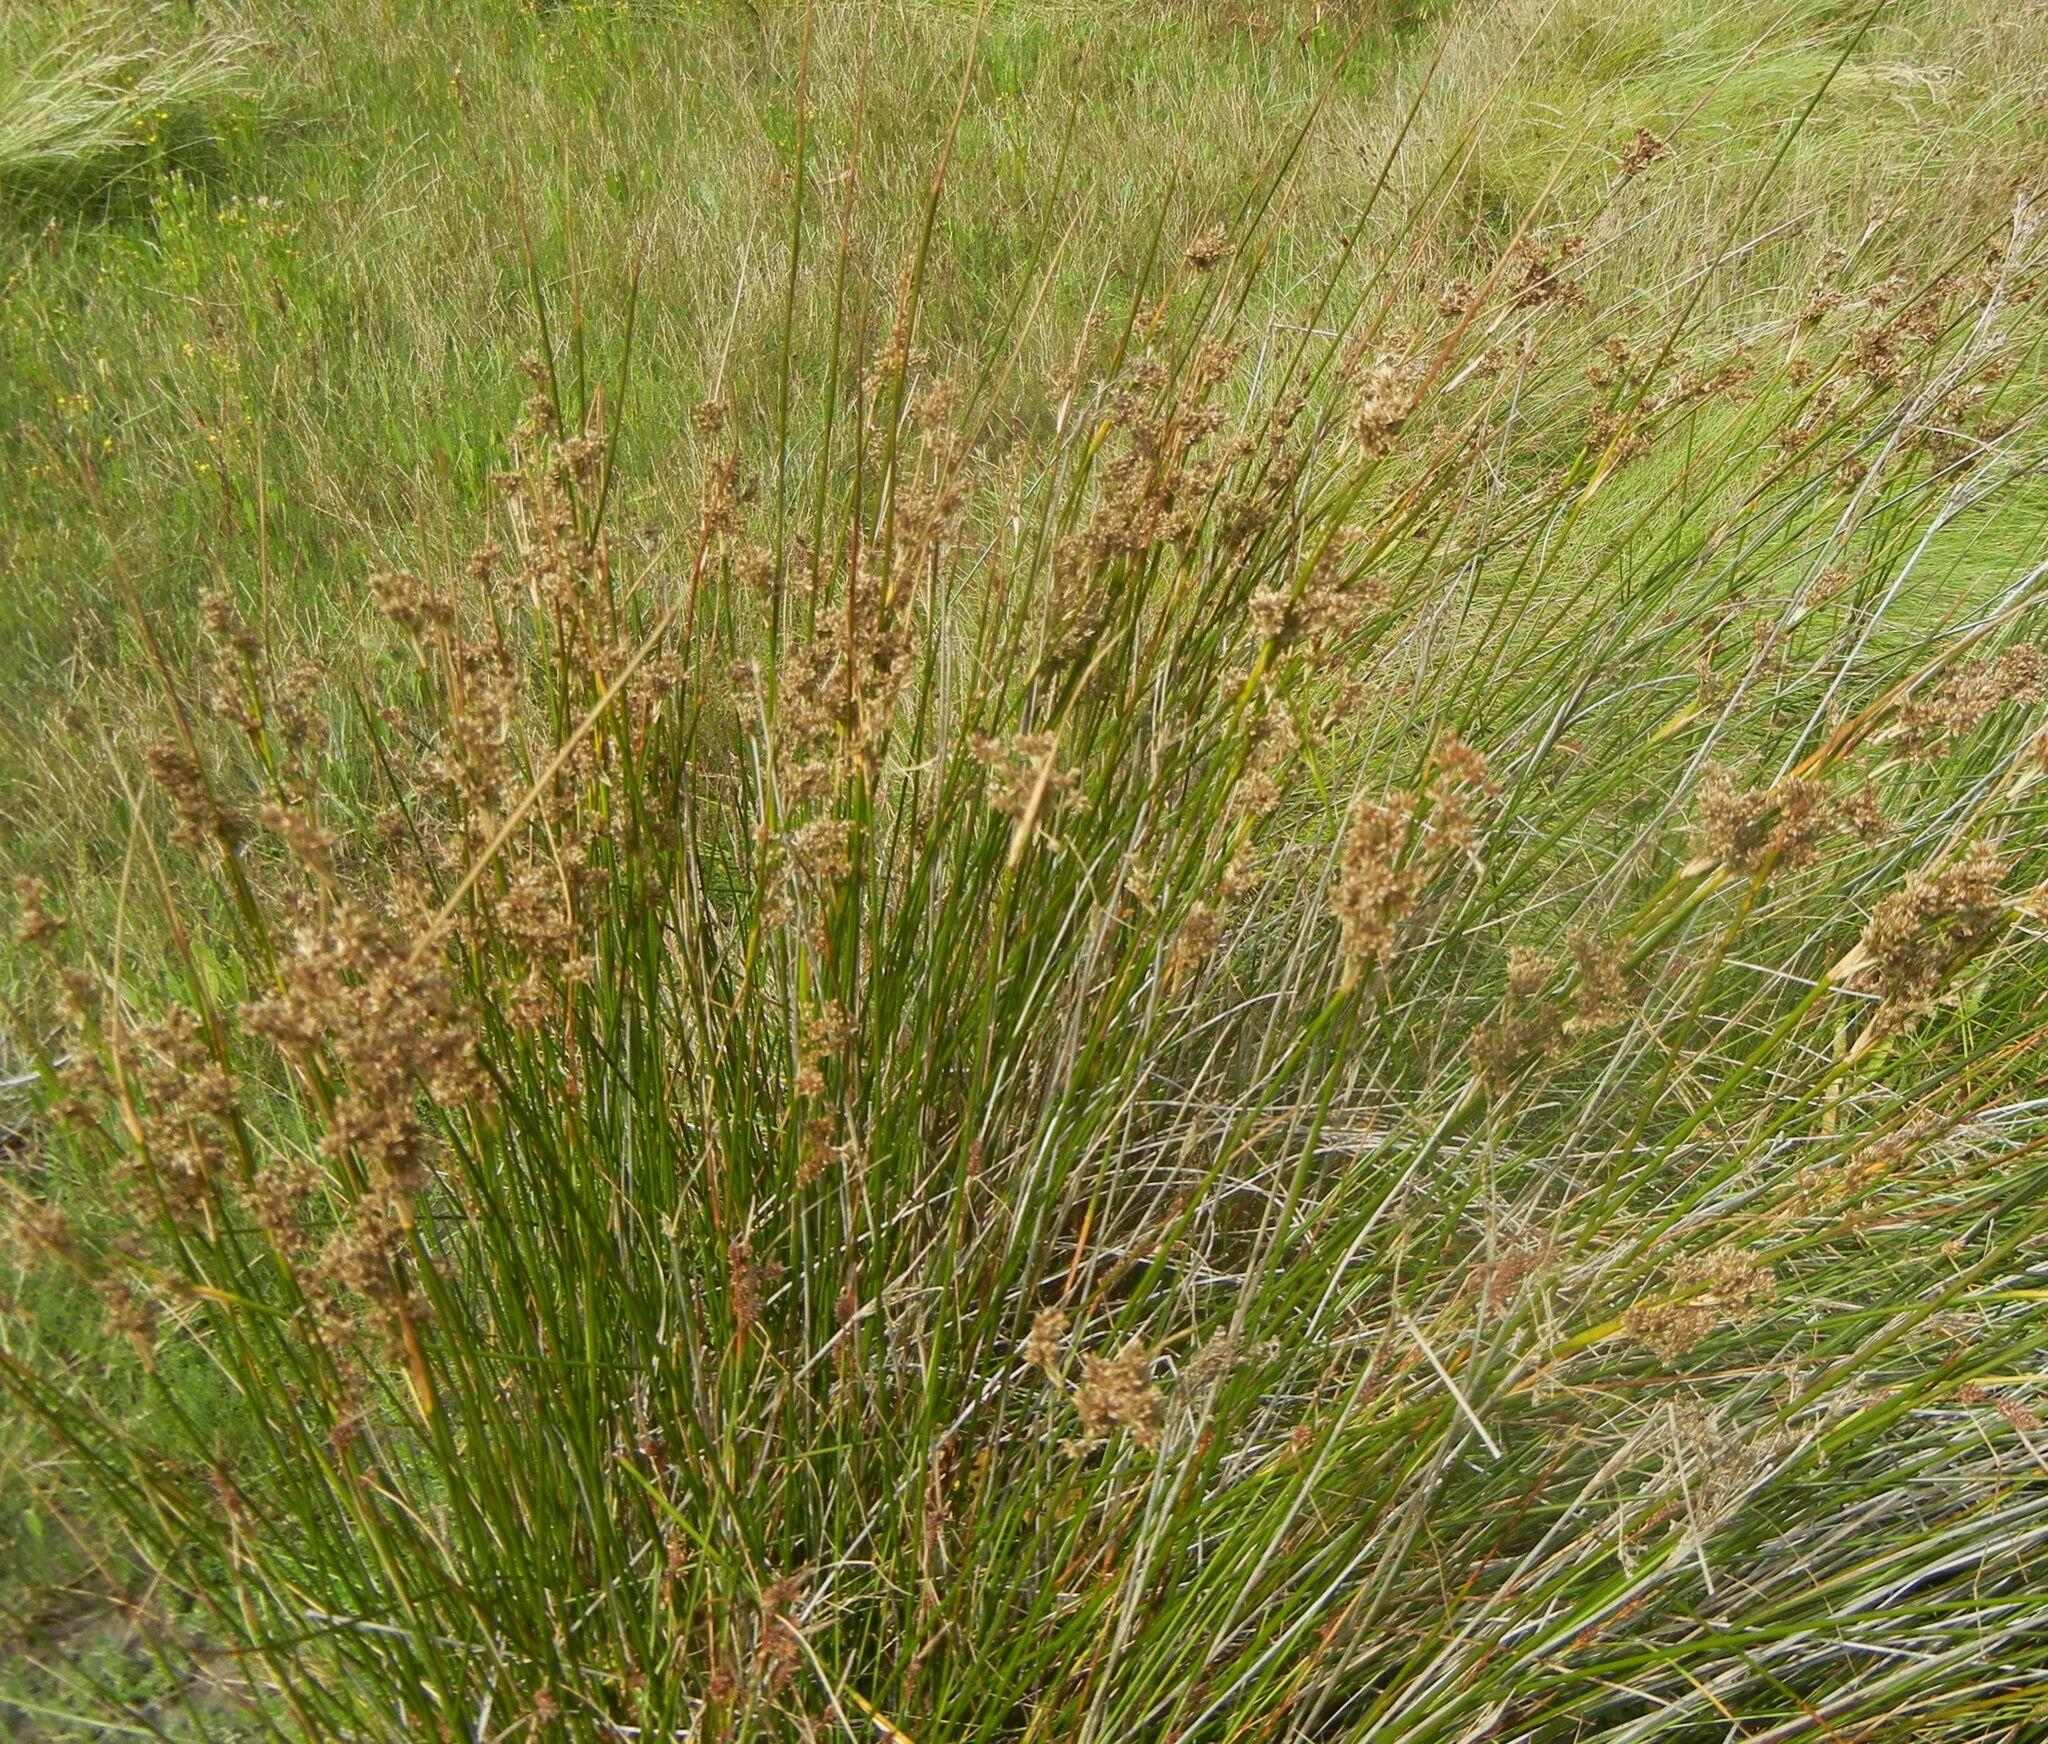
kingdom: Plantae
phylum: Tracheophyta
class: Liliopsida
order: Poales
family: Juncaceae
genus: Juncus
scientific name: Juncus maritimus
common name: Sea rush
